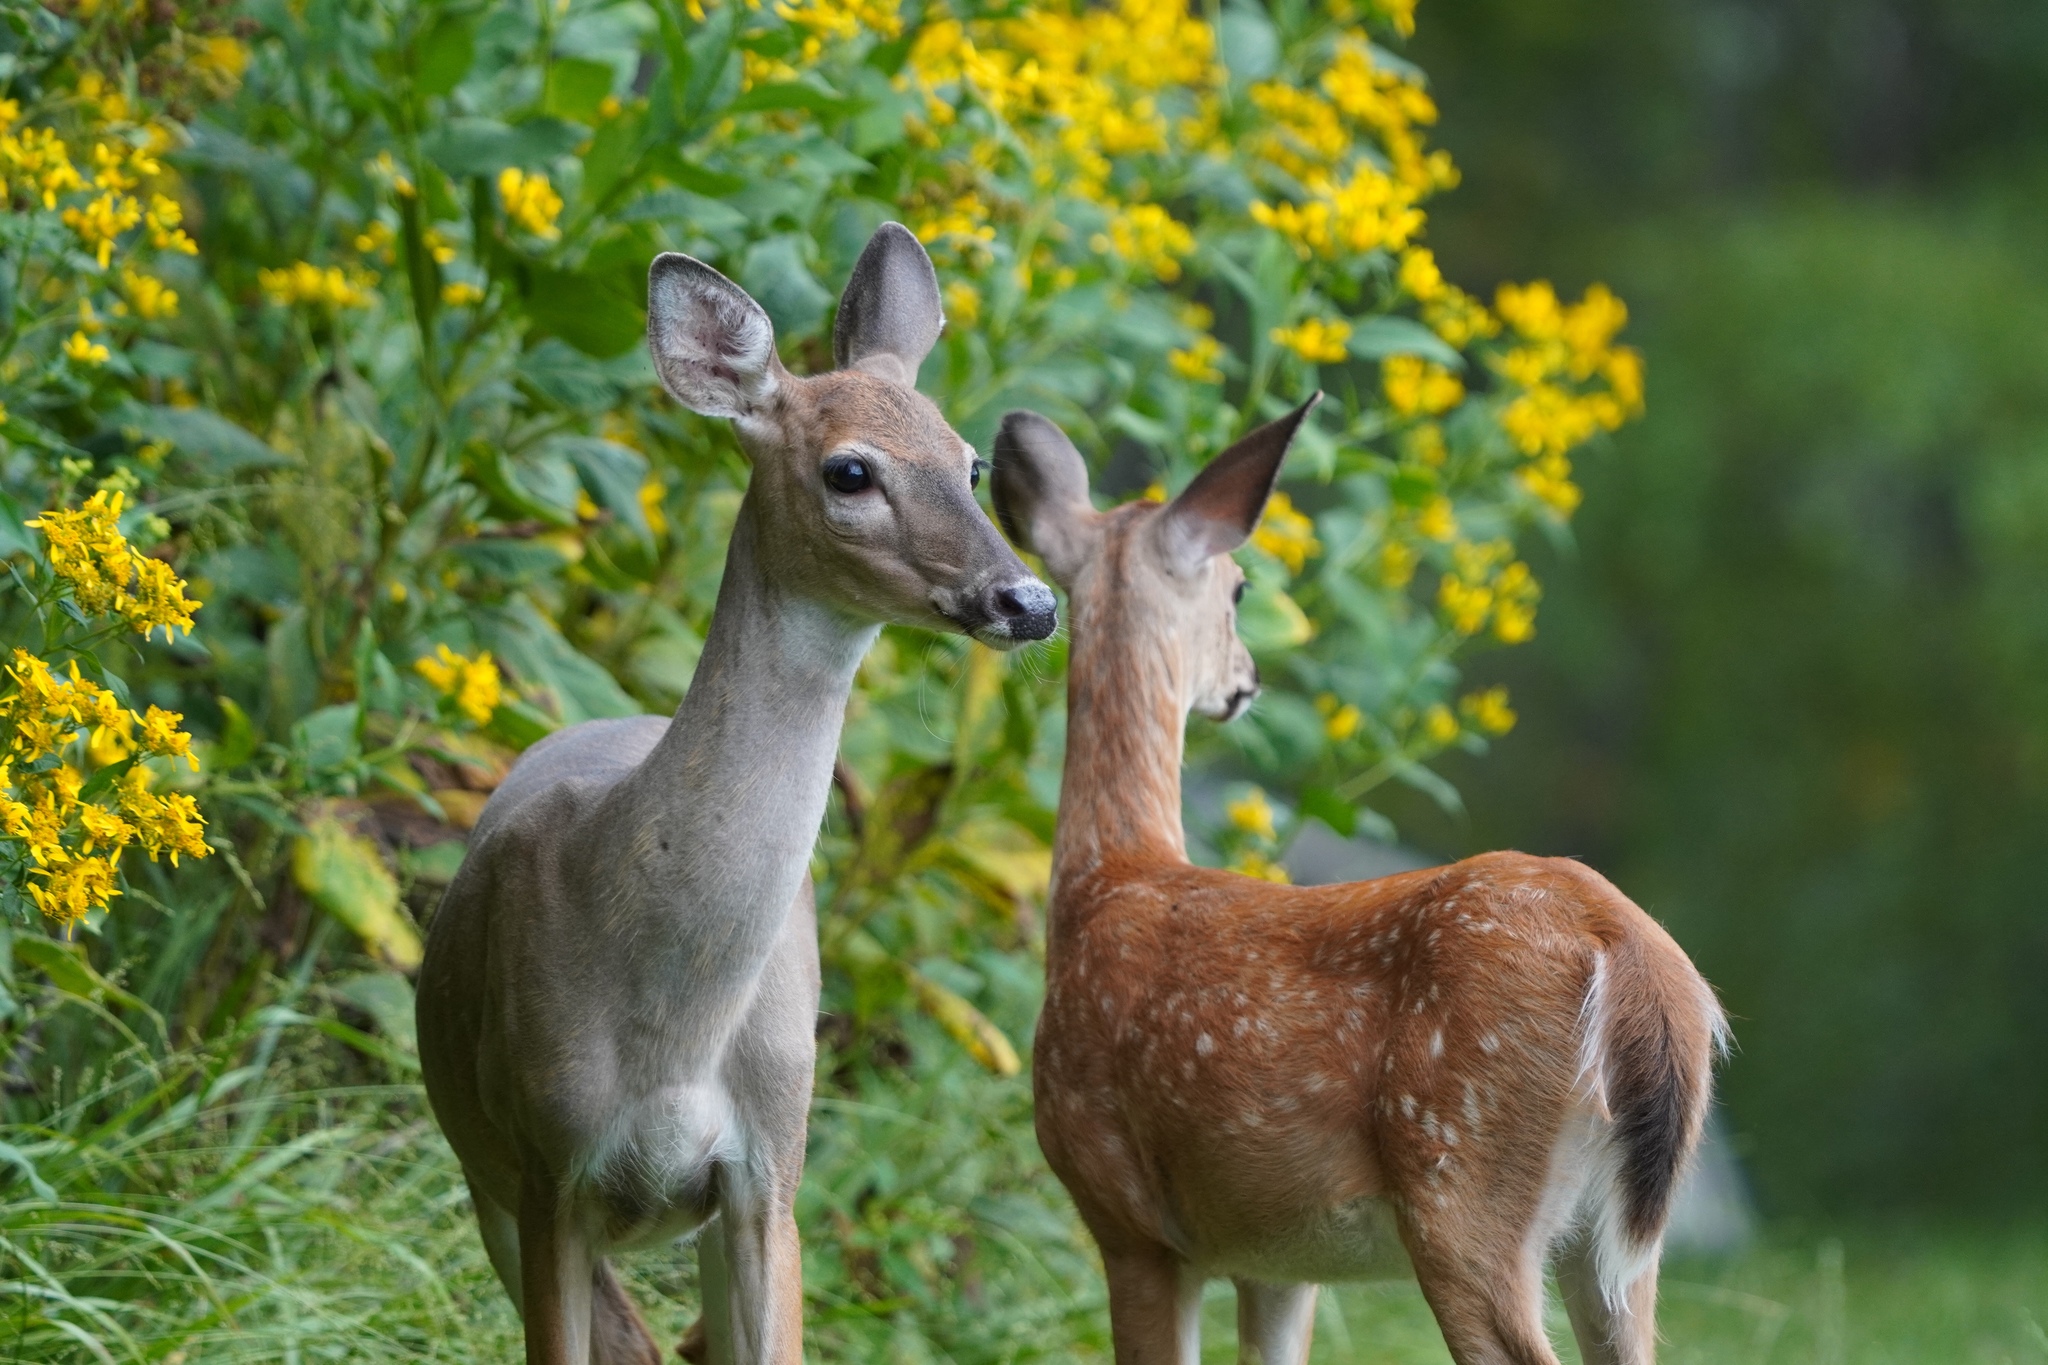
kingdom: Animalia
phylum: Chordata
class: Mammalia
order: Artiodactyla
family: Cervidae
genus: Odocoileus
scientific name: Odocoileus virginianus
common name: White-tailed deer
